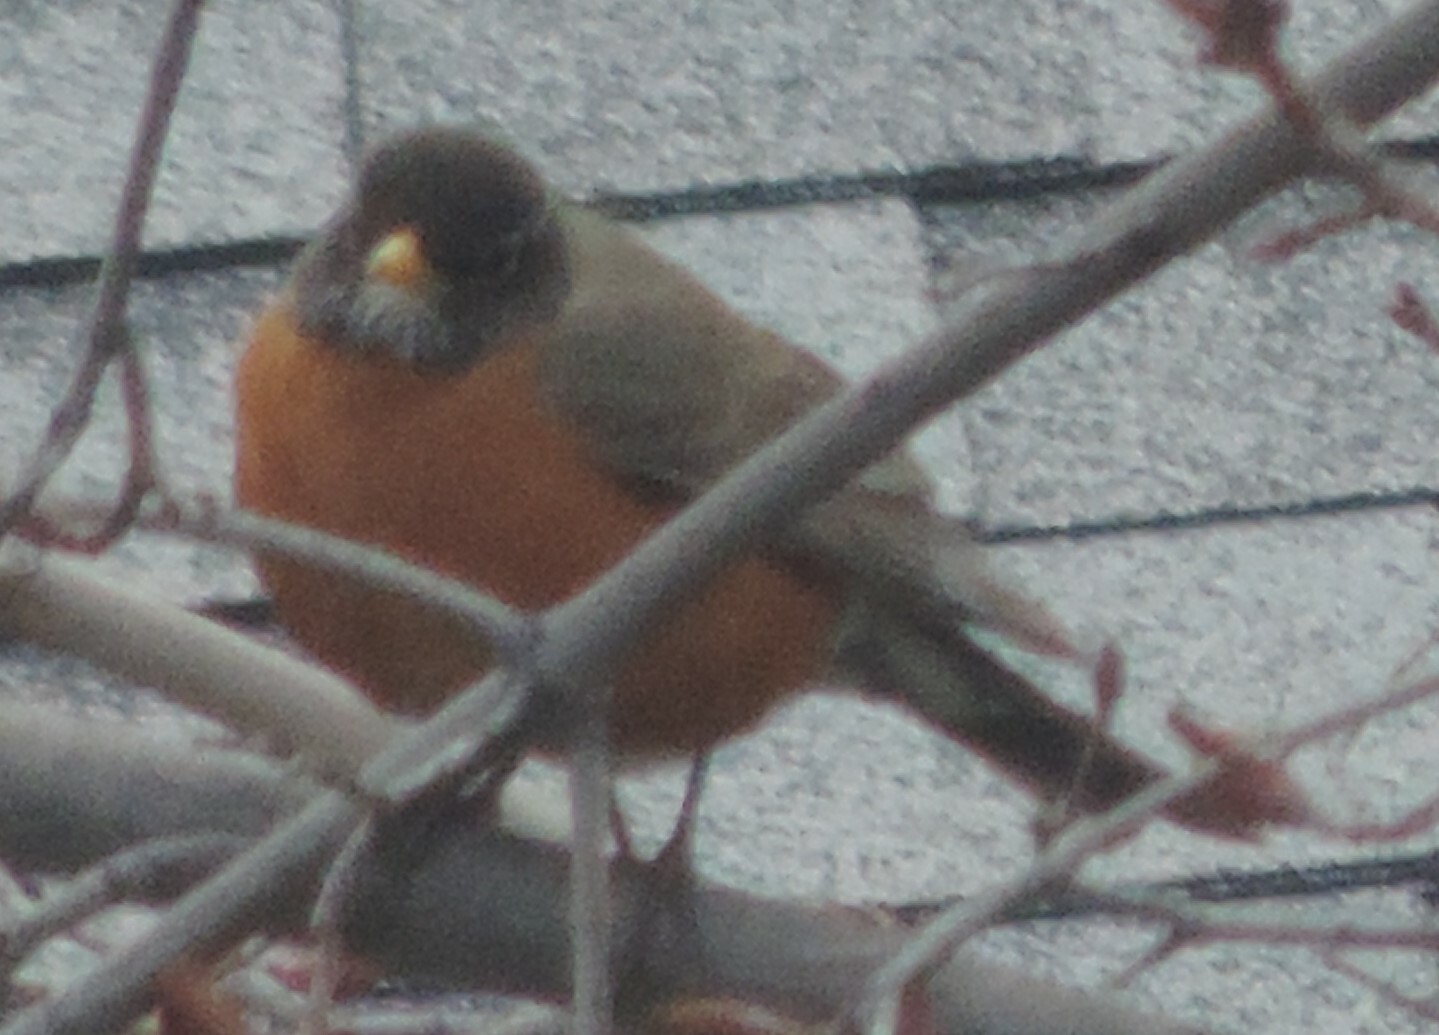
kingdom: Animalia
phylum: Chordata
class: Aves
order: Passeriformes
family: Turdidae
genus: Turdus
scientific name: Turdus migratorius
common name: American robin
